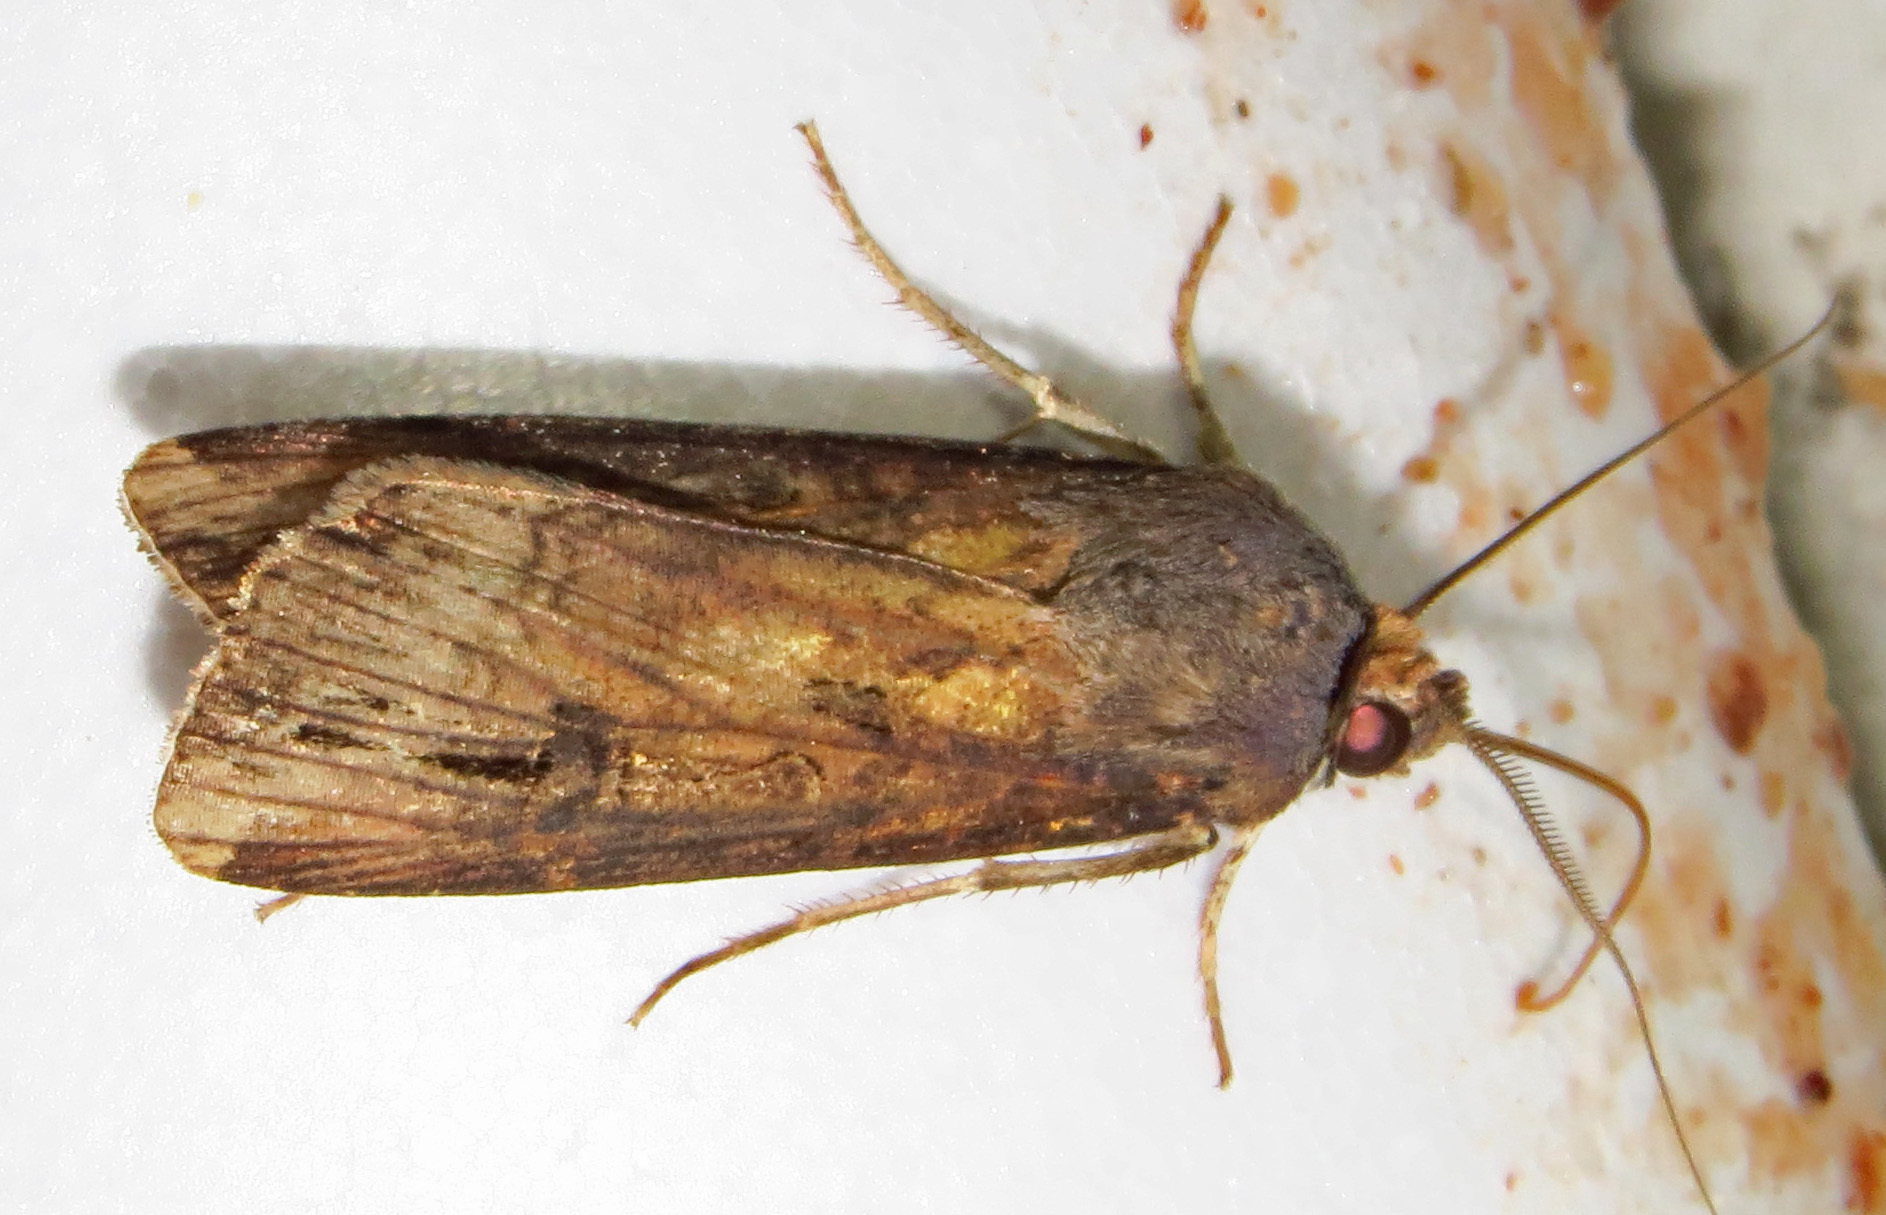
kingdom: Animalia
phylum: Arthropoda
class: Insecta
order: Lepidoptera
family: Noctuidae
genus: Agrotis
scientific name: Agrotis ipsilon
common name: Dark sword-grass
